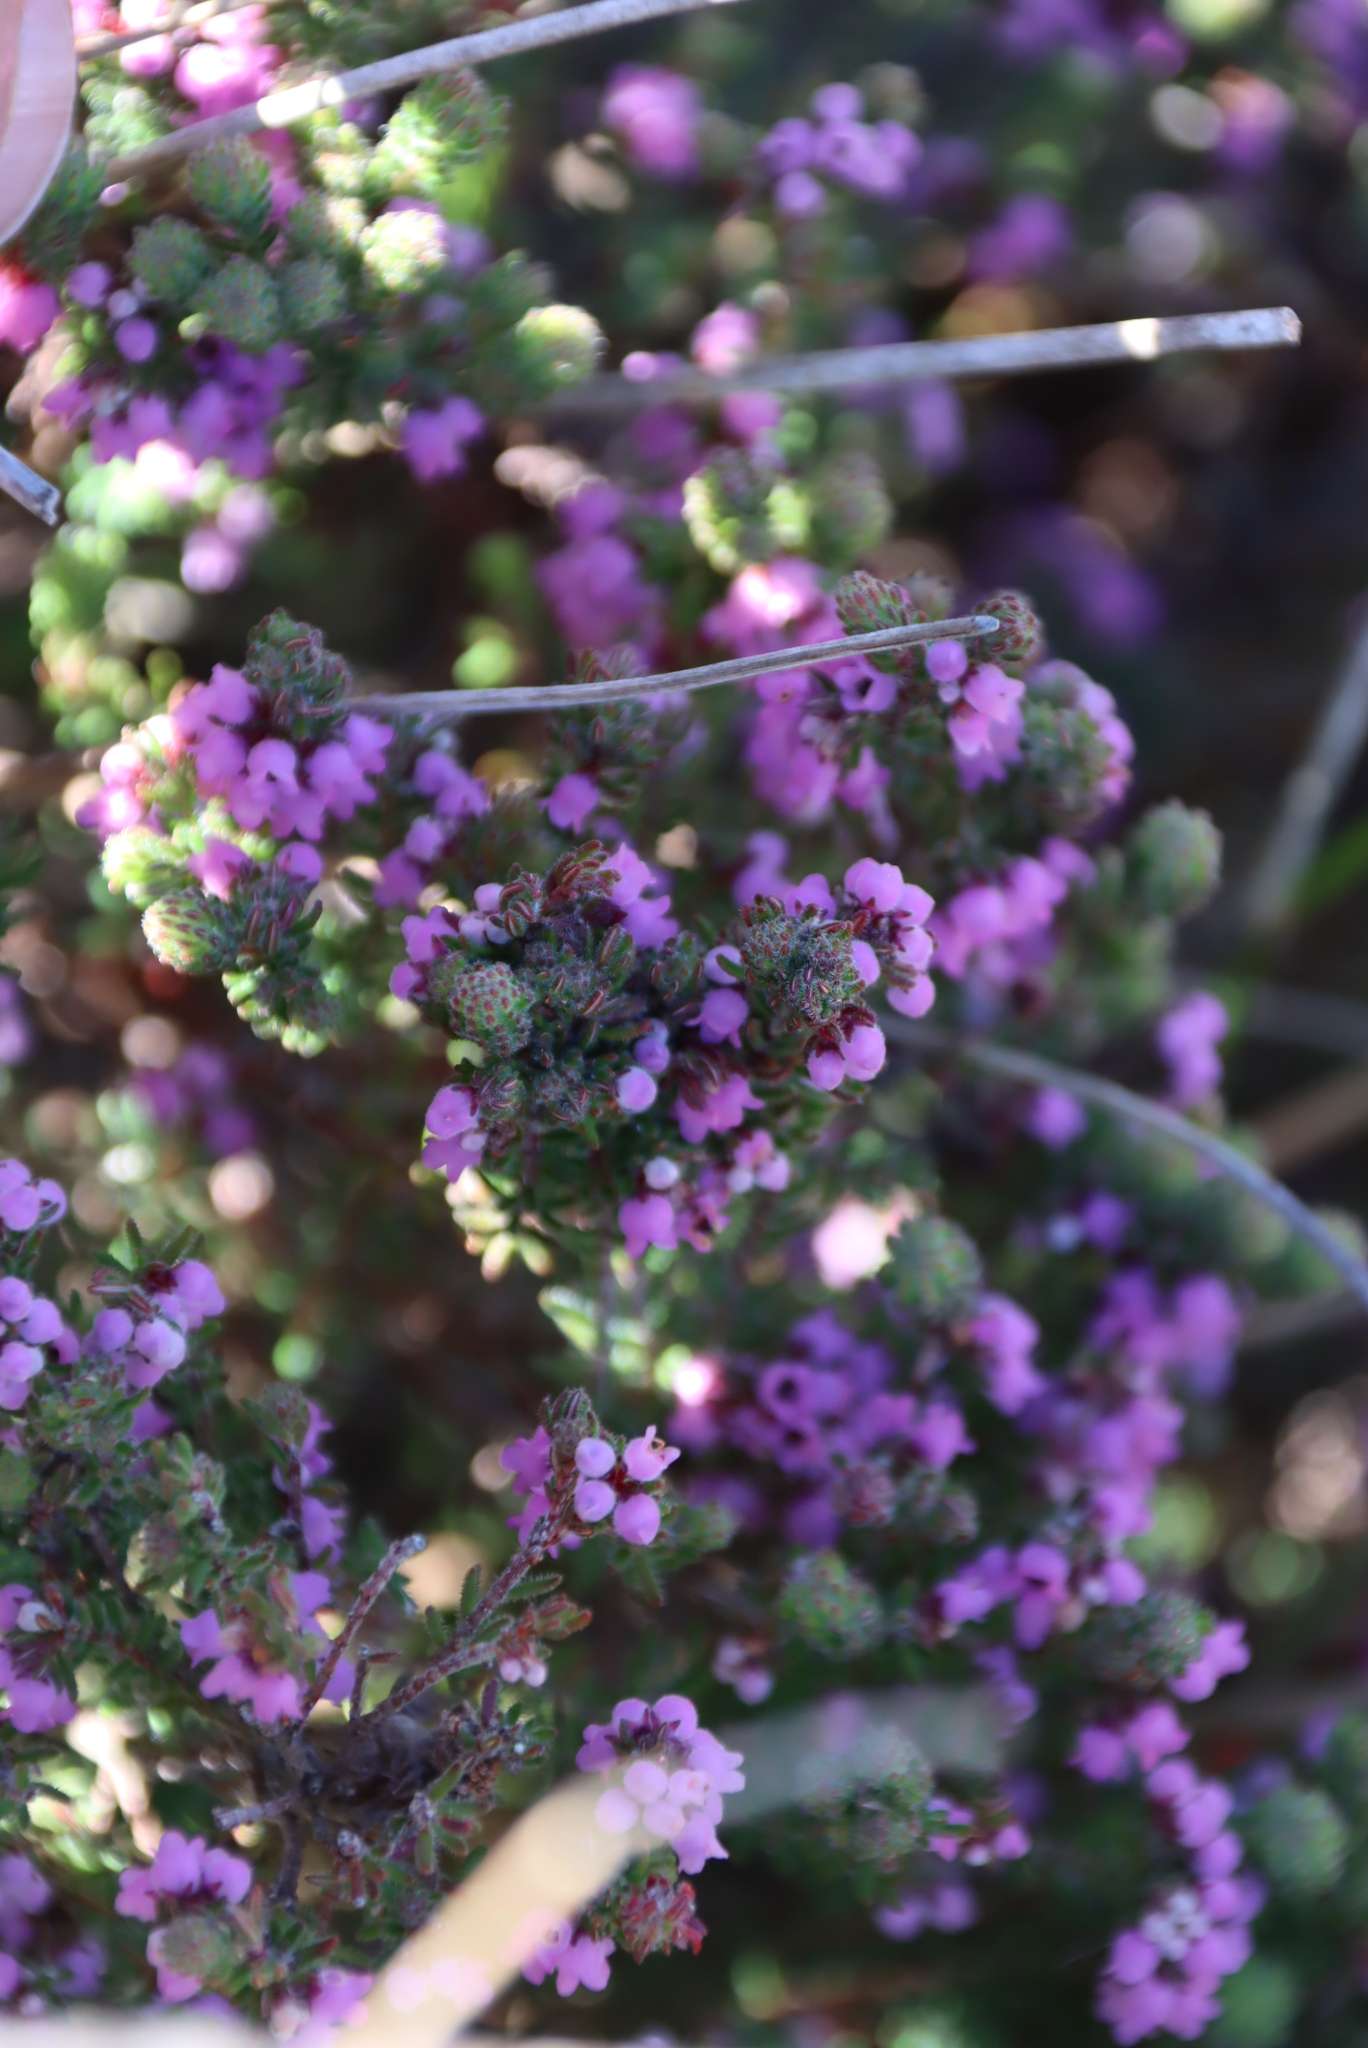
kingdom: Plantae
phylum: Tracheophyta
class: Magnoliopsida
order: Ericales
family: Ericaceae
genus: Erica
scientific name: Erica mollis
